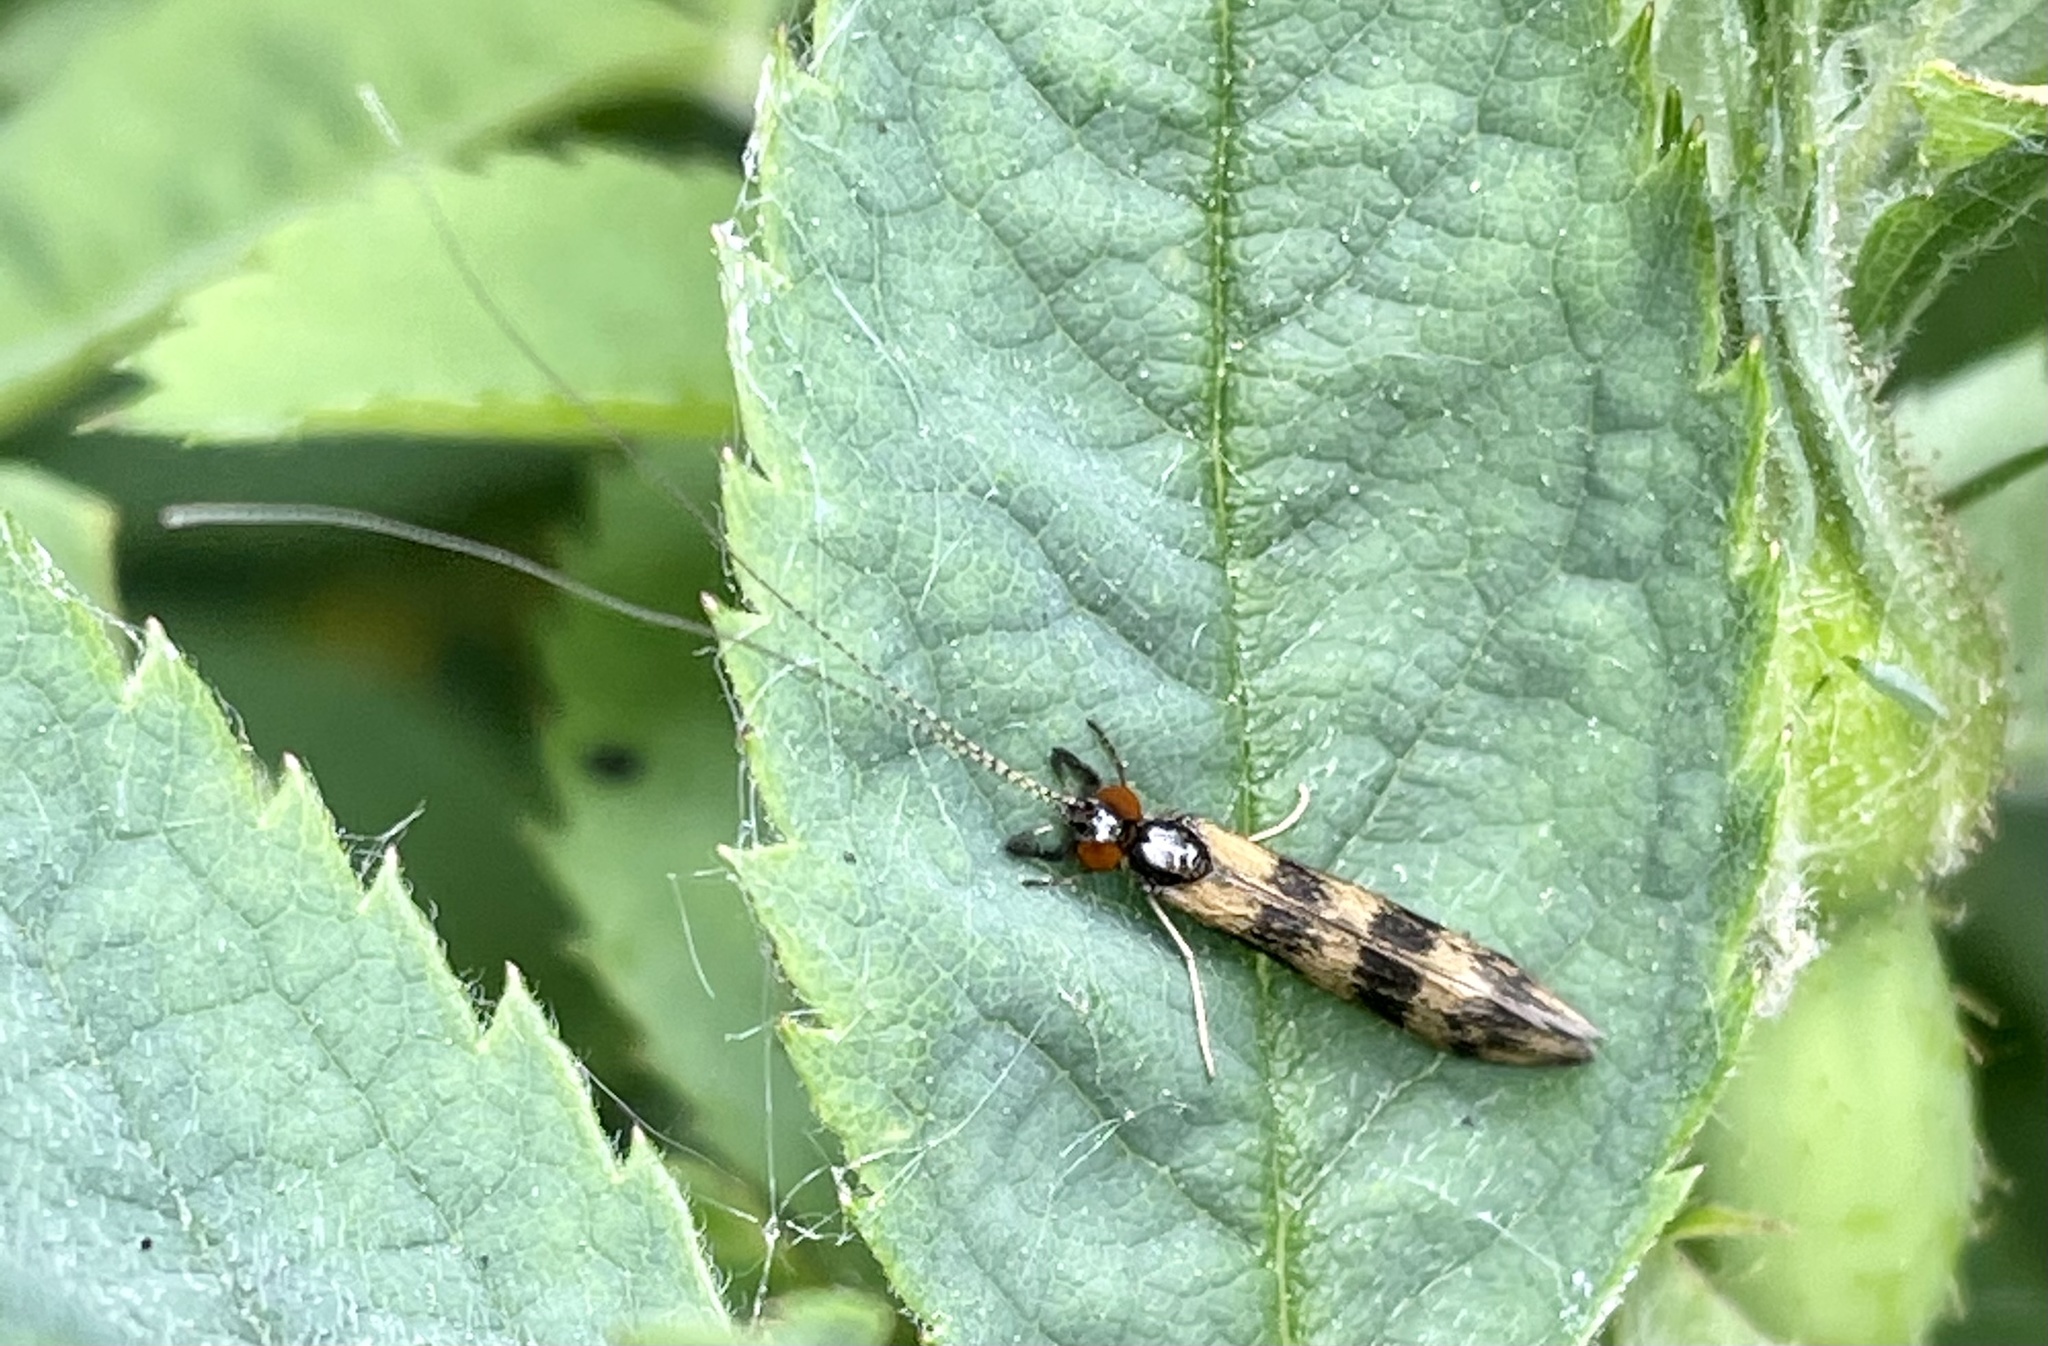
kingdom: Animalia
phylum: Arthropoda
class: Insecta
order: Trichoptera
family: Leptoceridae
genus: Mystacides
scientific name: Mystacides longicornis
